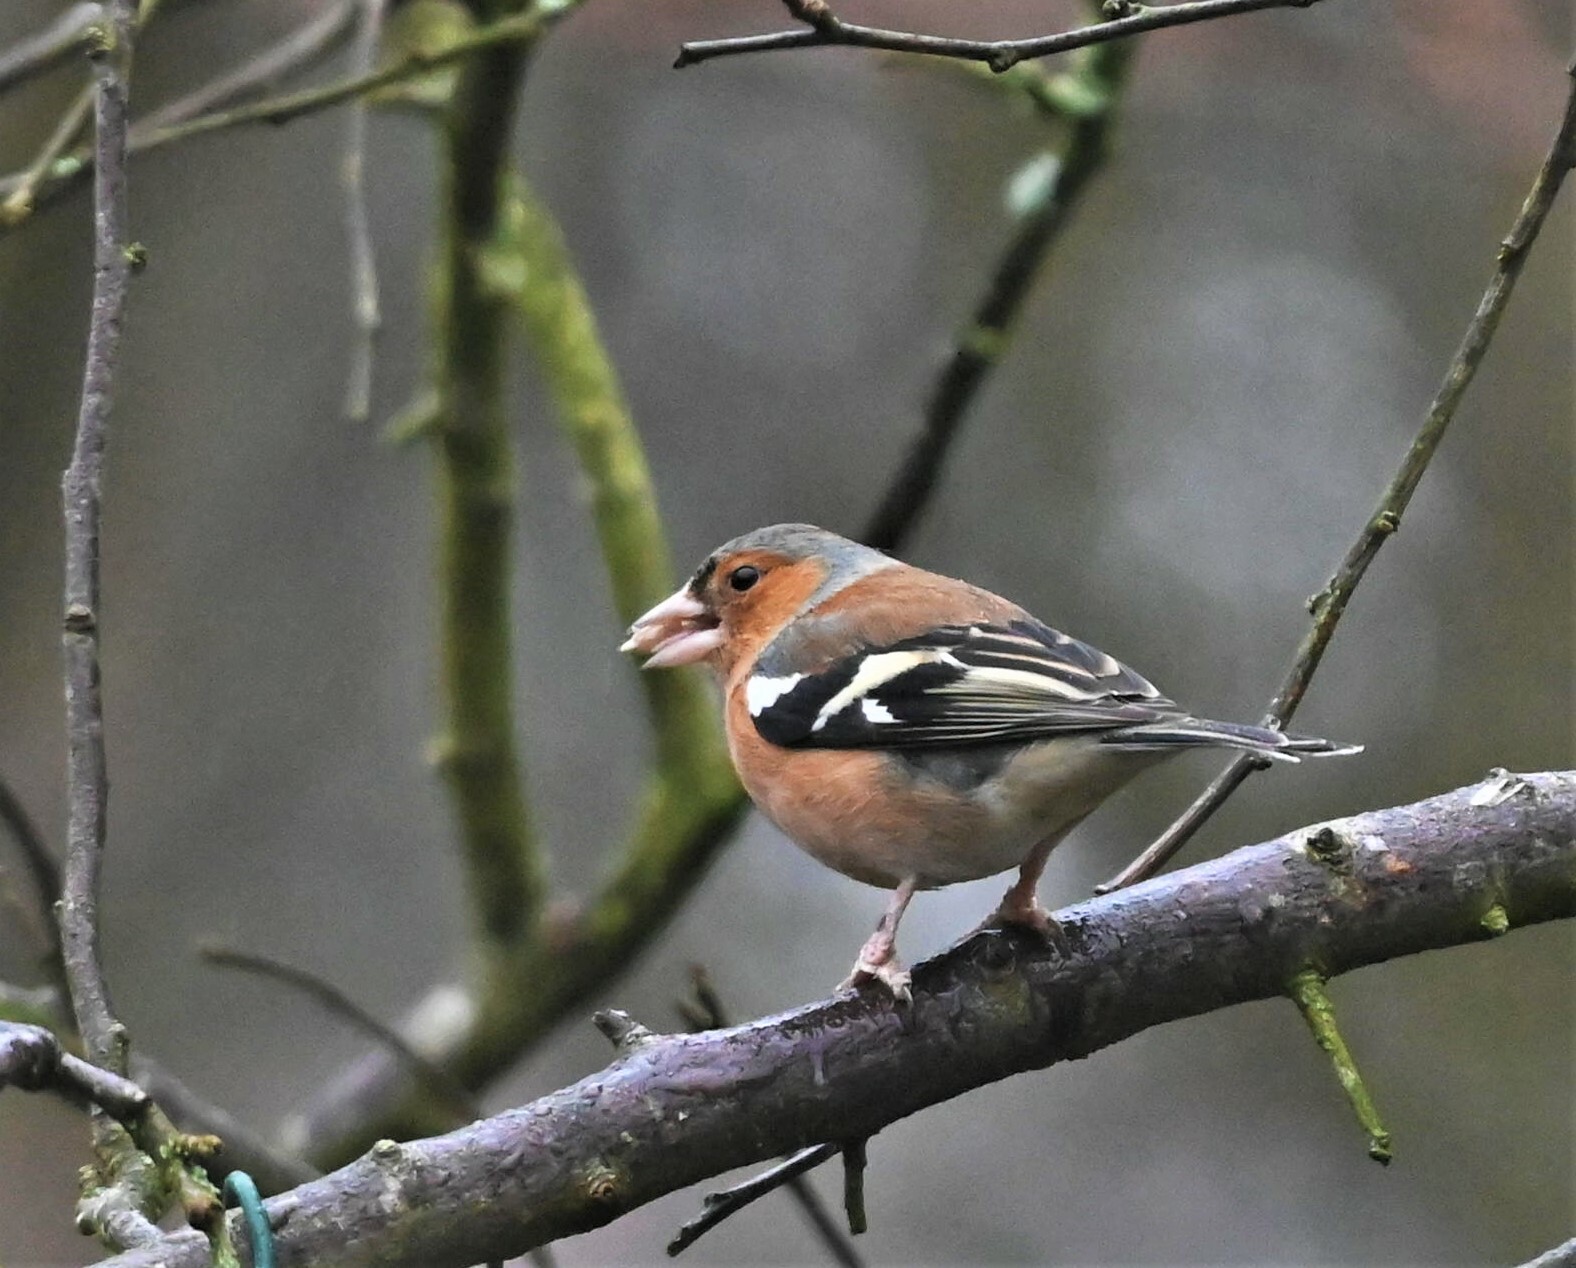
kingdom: Animalia
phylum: Chordata
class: Aves
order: Passeriformes
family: Fringillidae
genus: Fringilla
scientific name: Fringilla coelebs
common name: Common chaffinch
